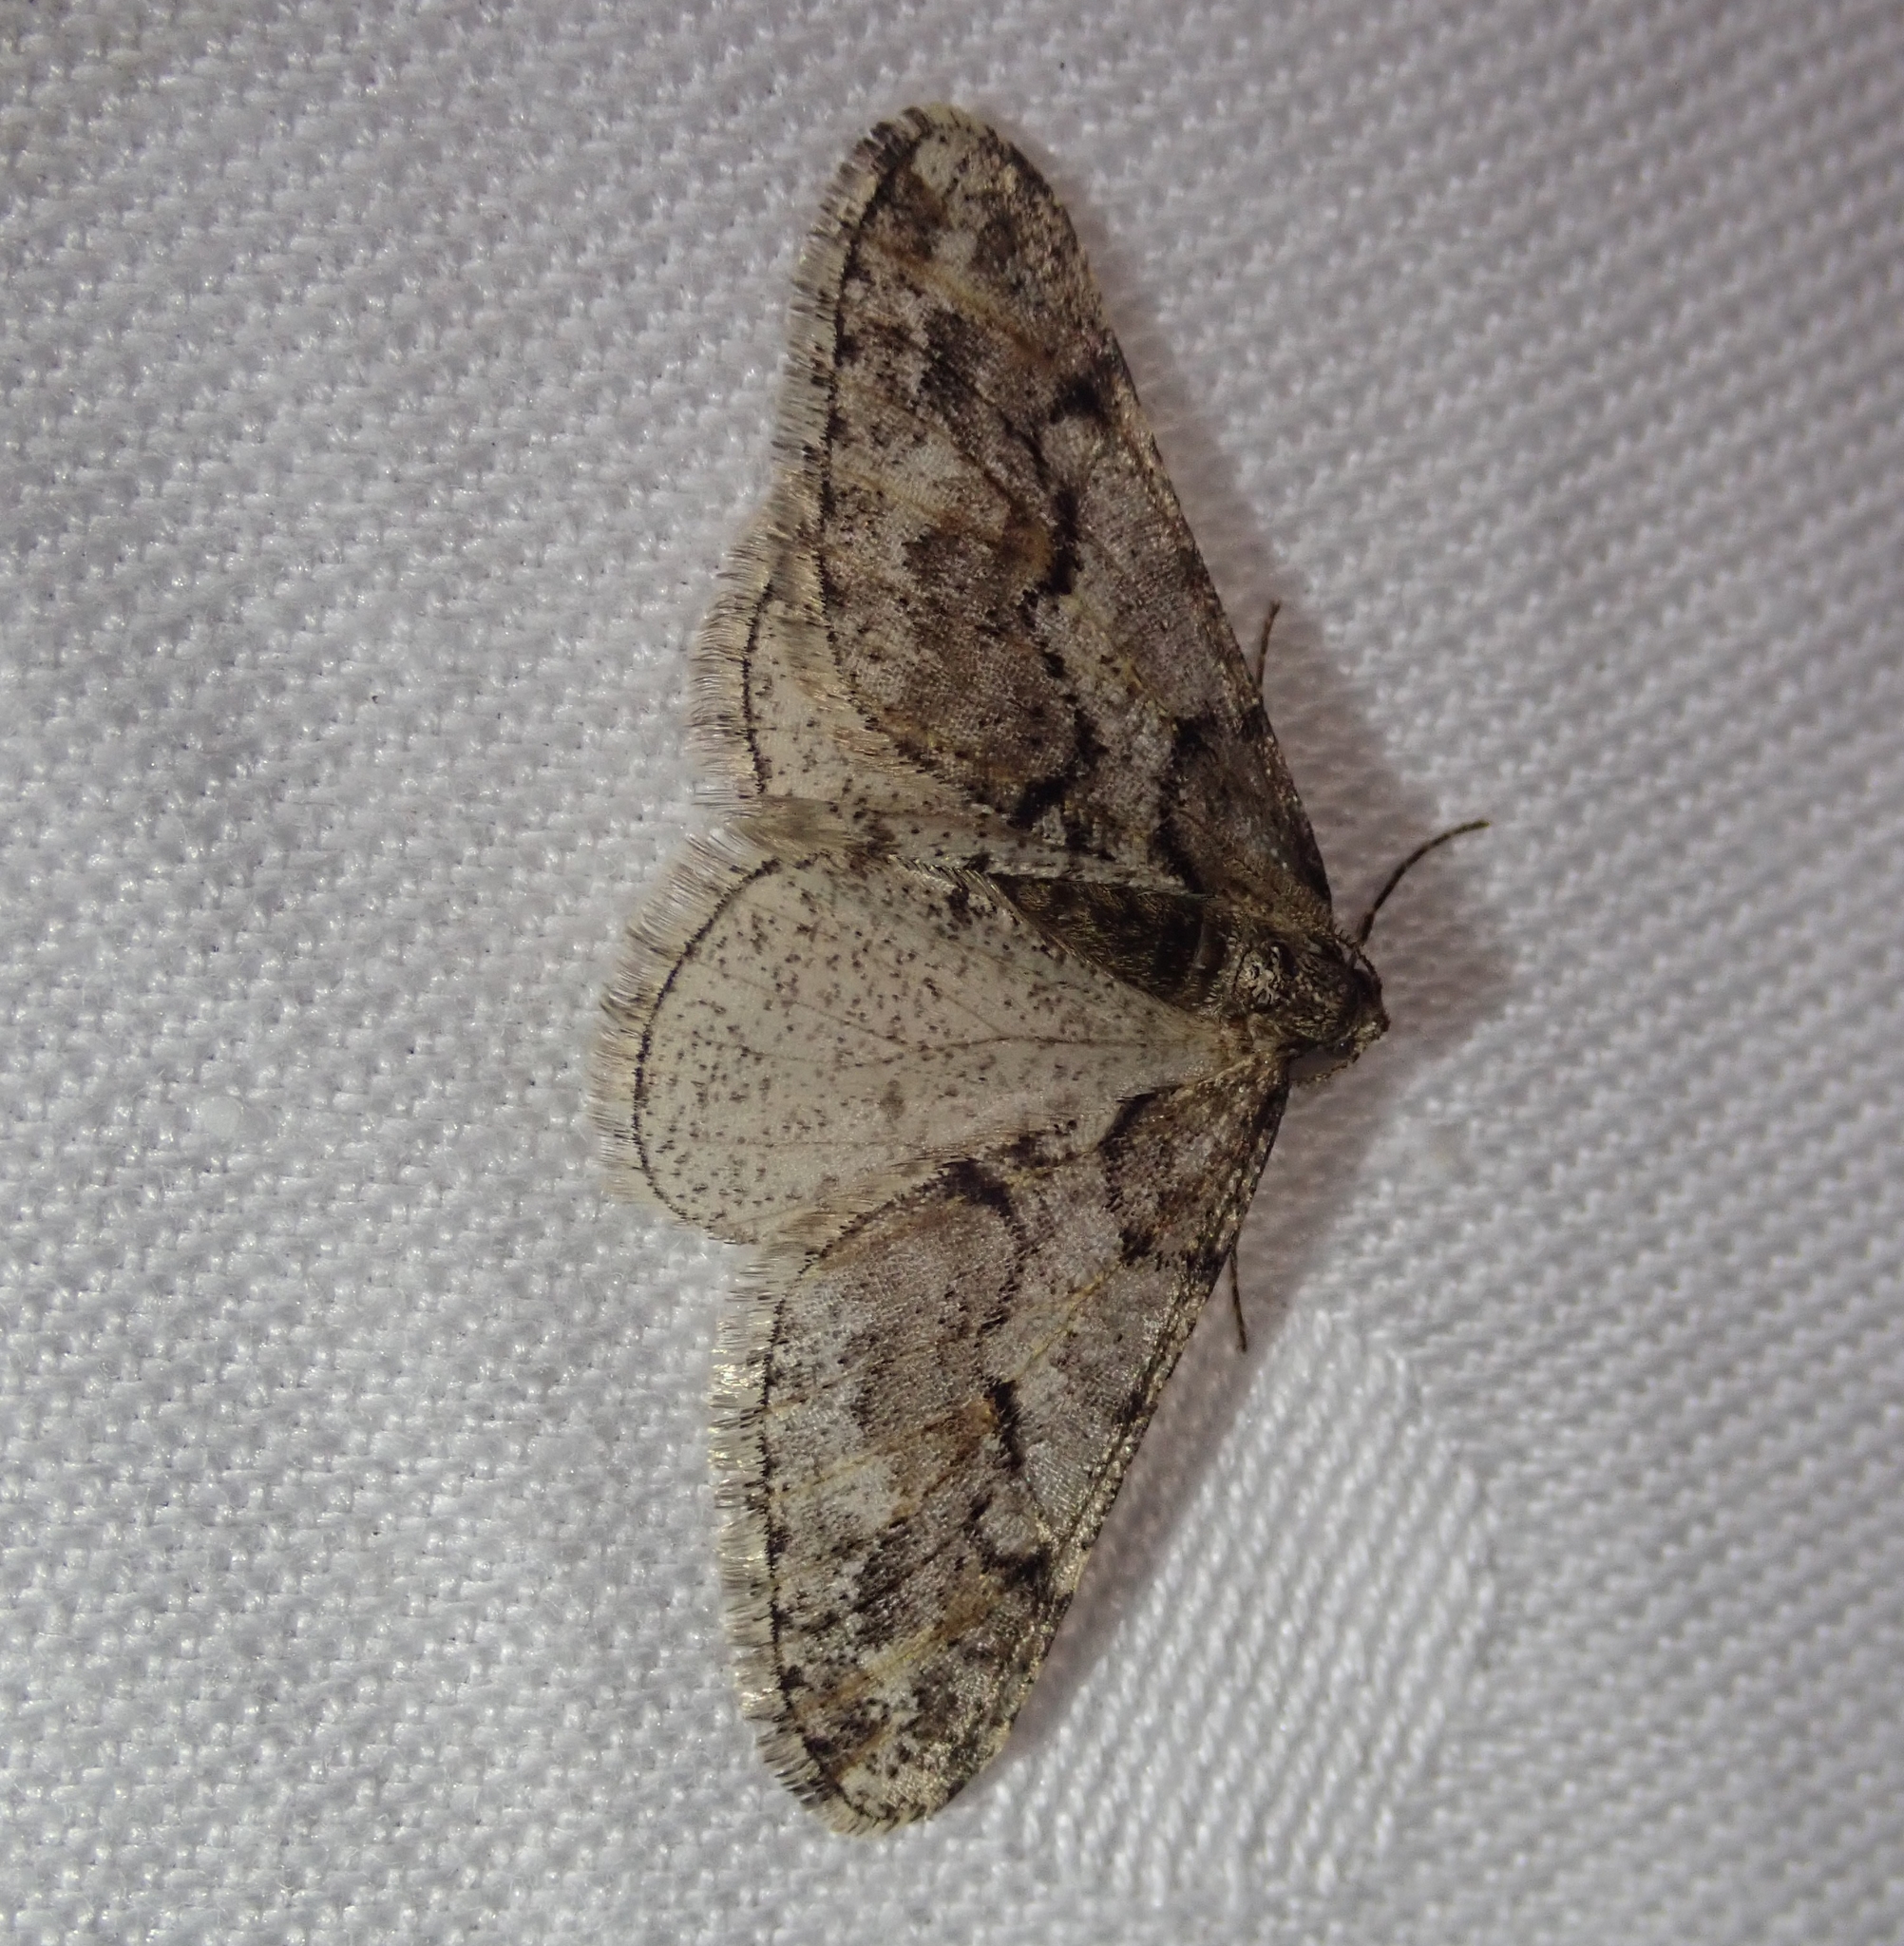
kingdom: Animalia
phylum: Arthropoda
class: Insecta
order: Lepidoptera
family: Geometridae
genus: Agriopis
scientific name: Agriopis leucophaearia
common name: Spring usher
